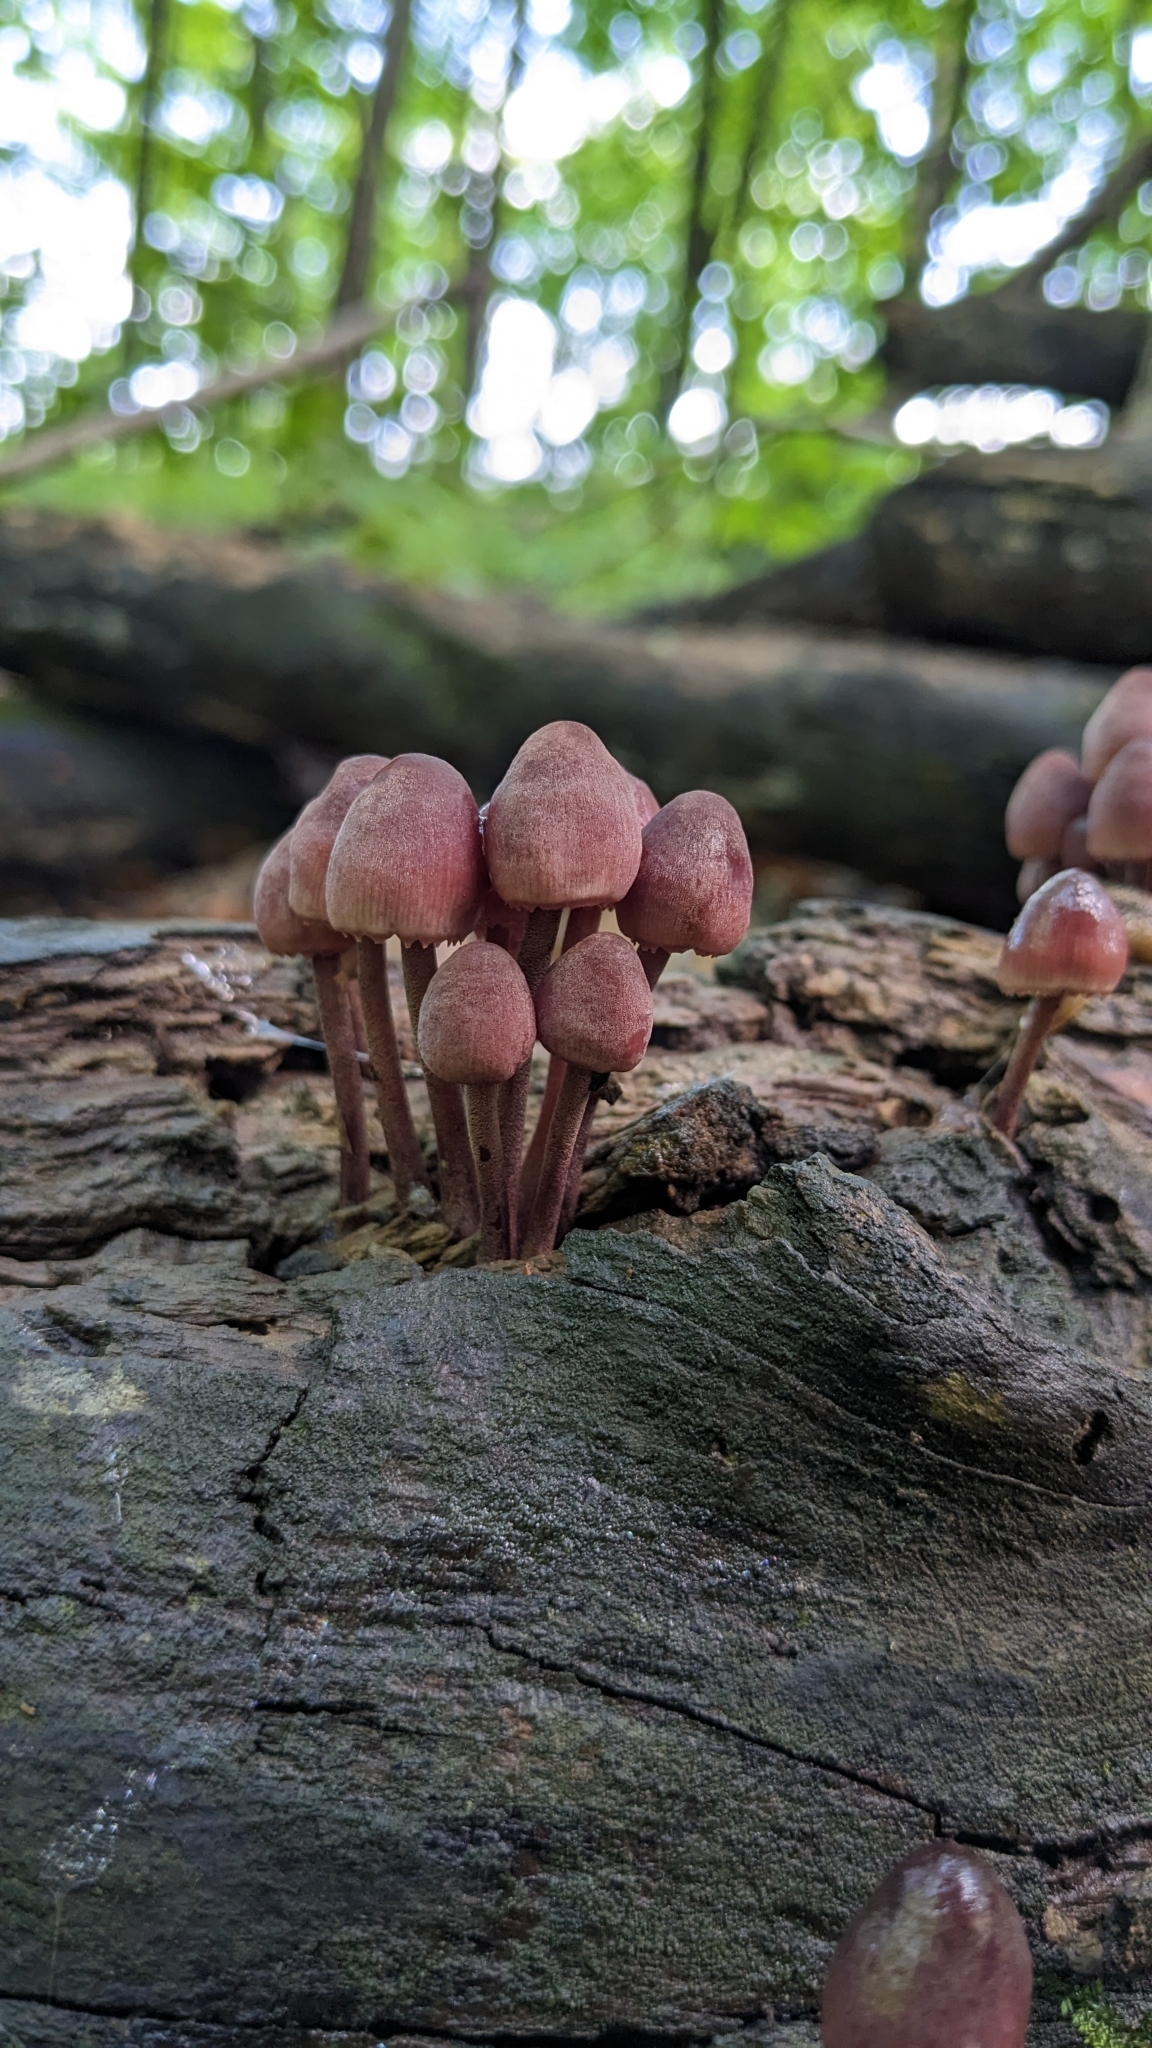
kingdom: Fungi
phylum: Basidiomycota
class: Agaricomycetes
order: Agaricales
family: Mycenaceae
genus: Mycena
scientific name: Mycena haematopus
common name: Burgundydrop bonnet
